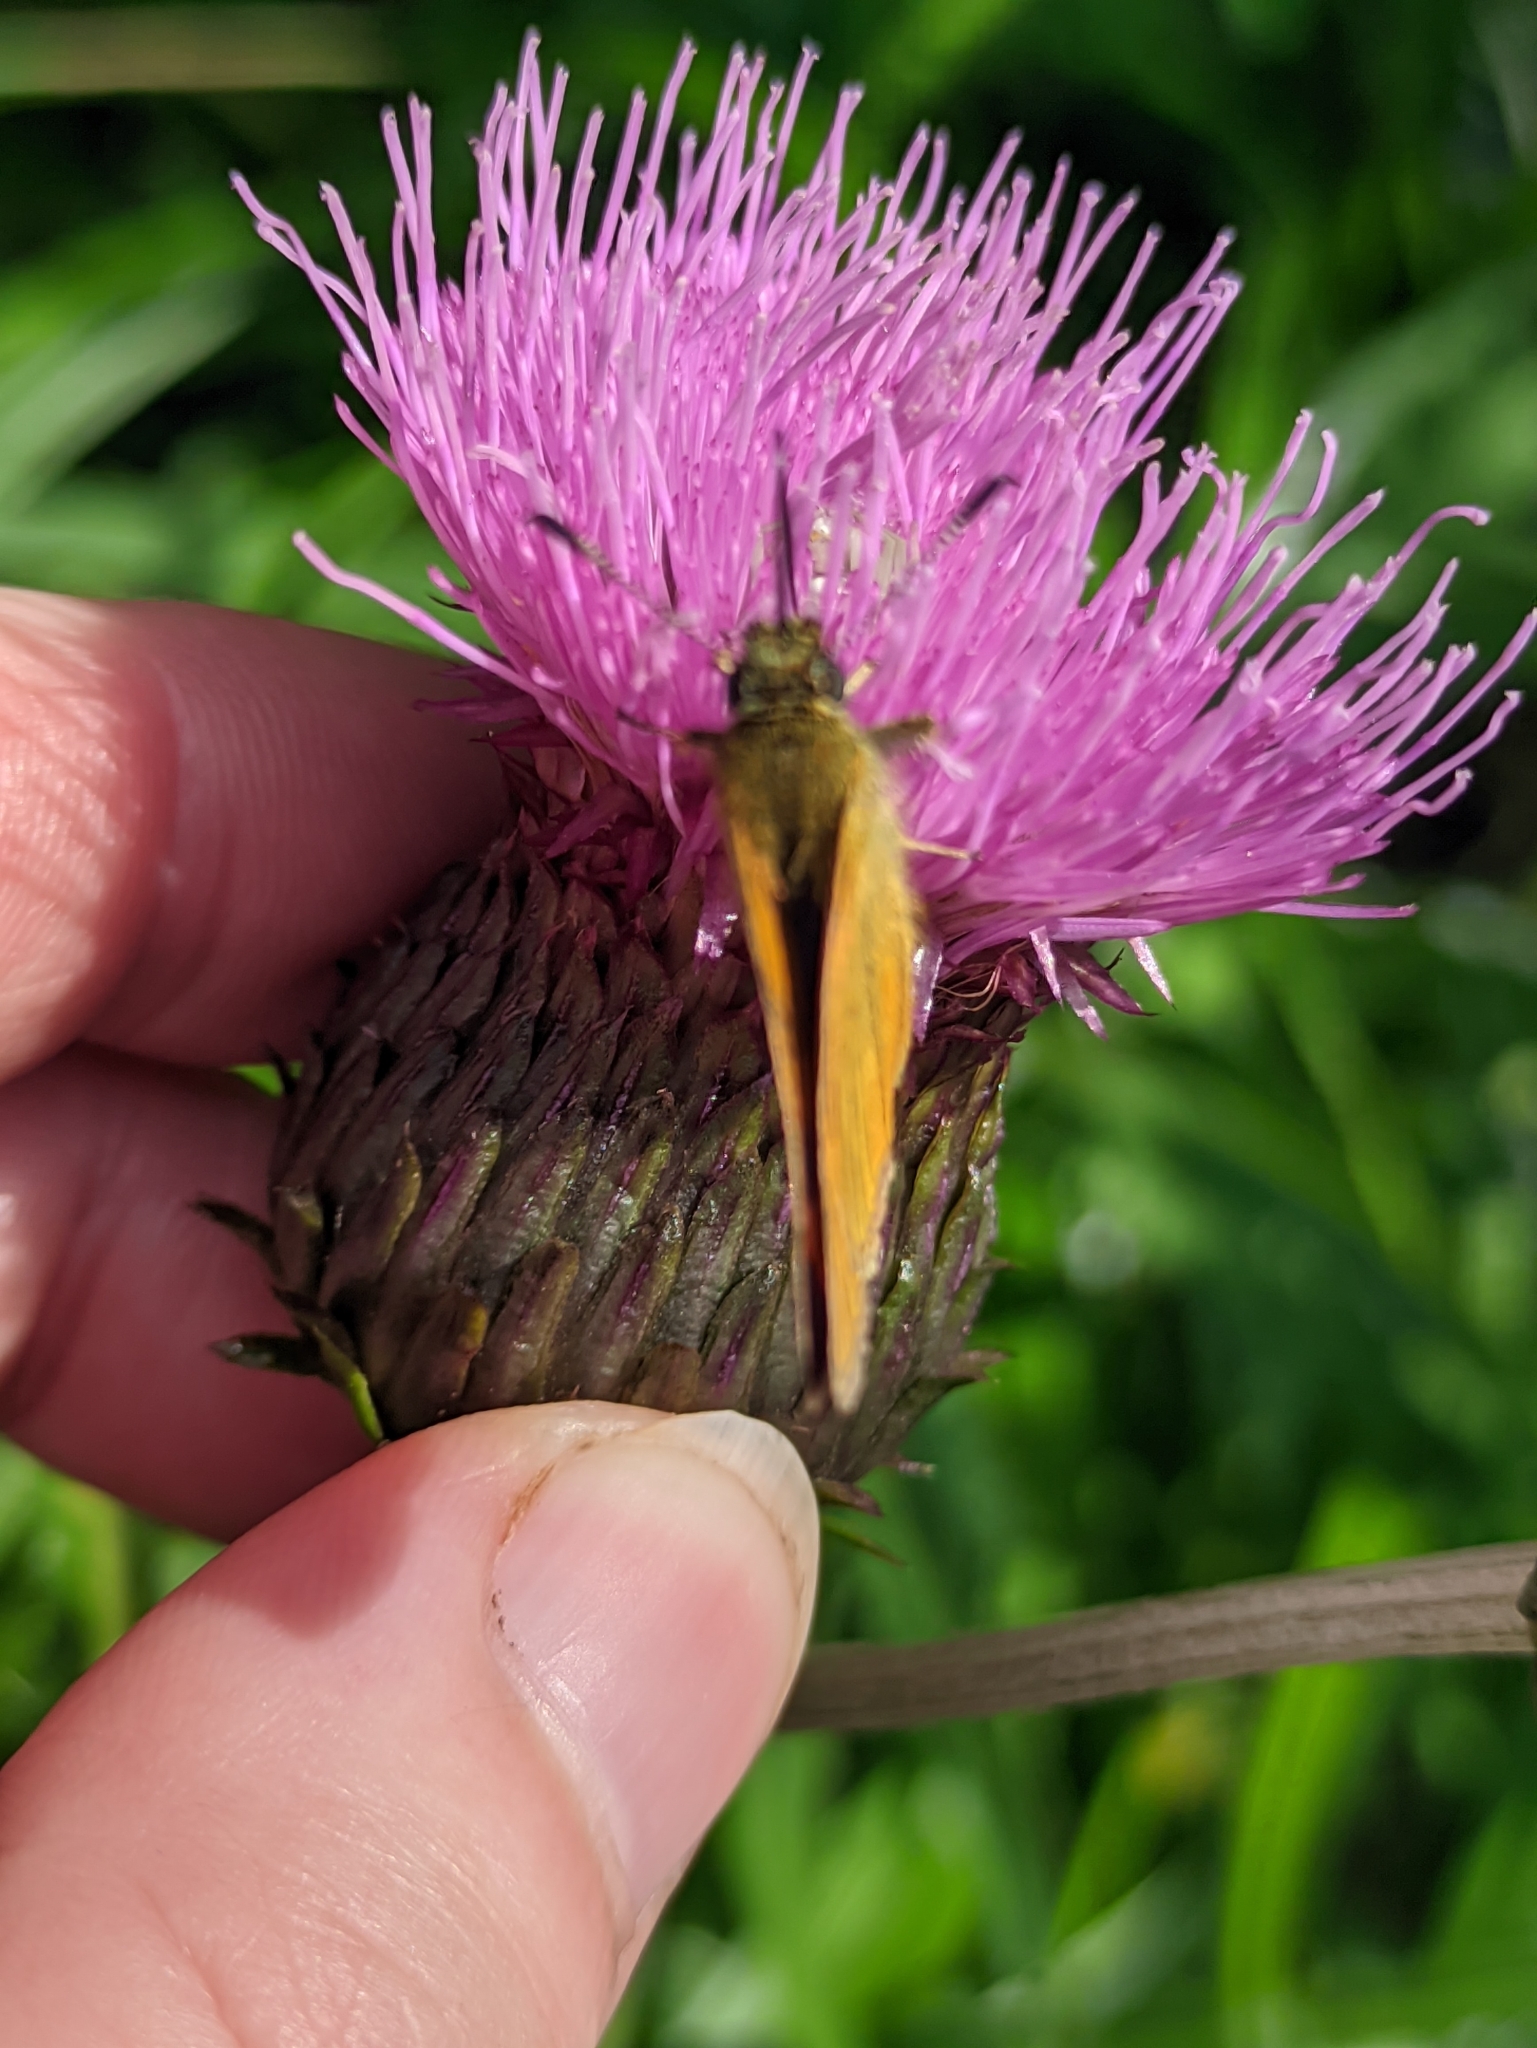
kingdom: Animalia
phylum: Arthropoda
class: Insecta
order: Lepidoptera
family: Hesperiidae
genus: Ochlodes
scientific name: Ochlodes venata
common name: Large skipper
